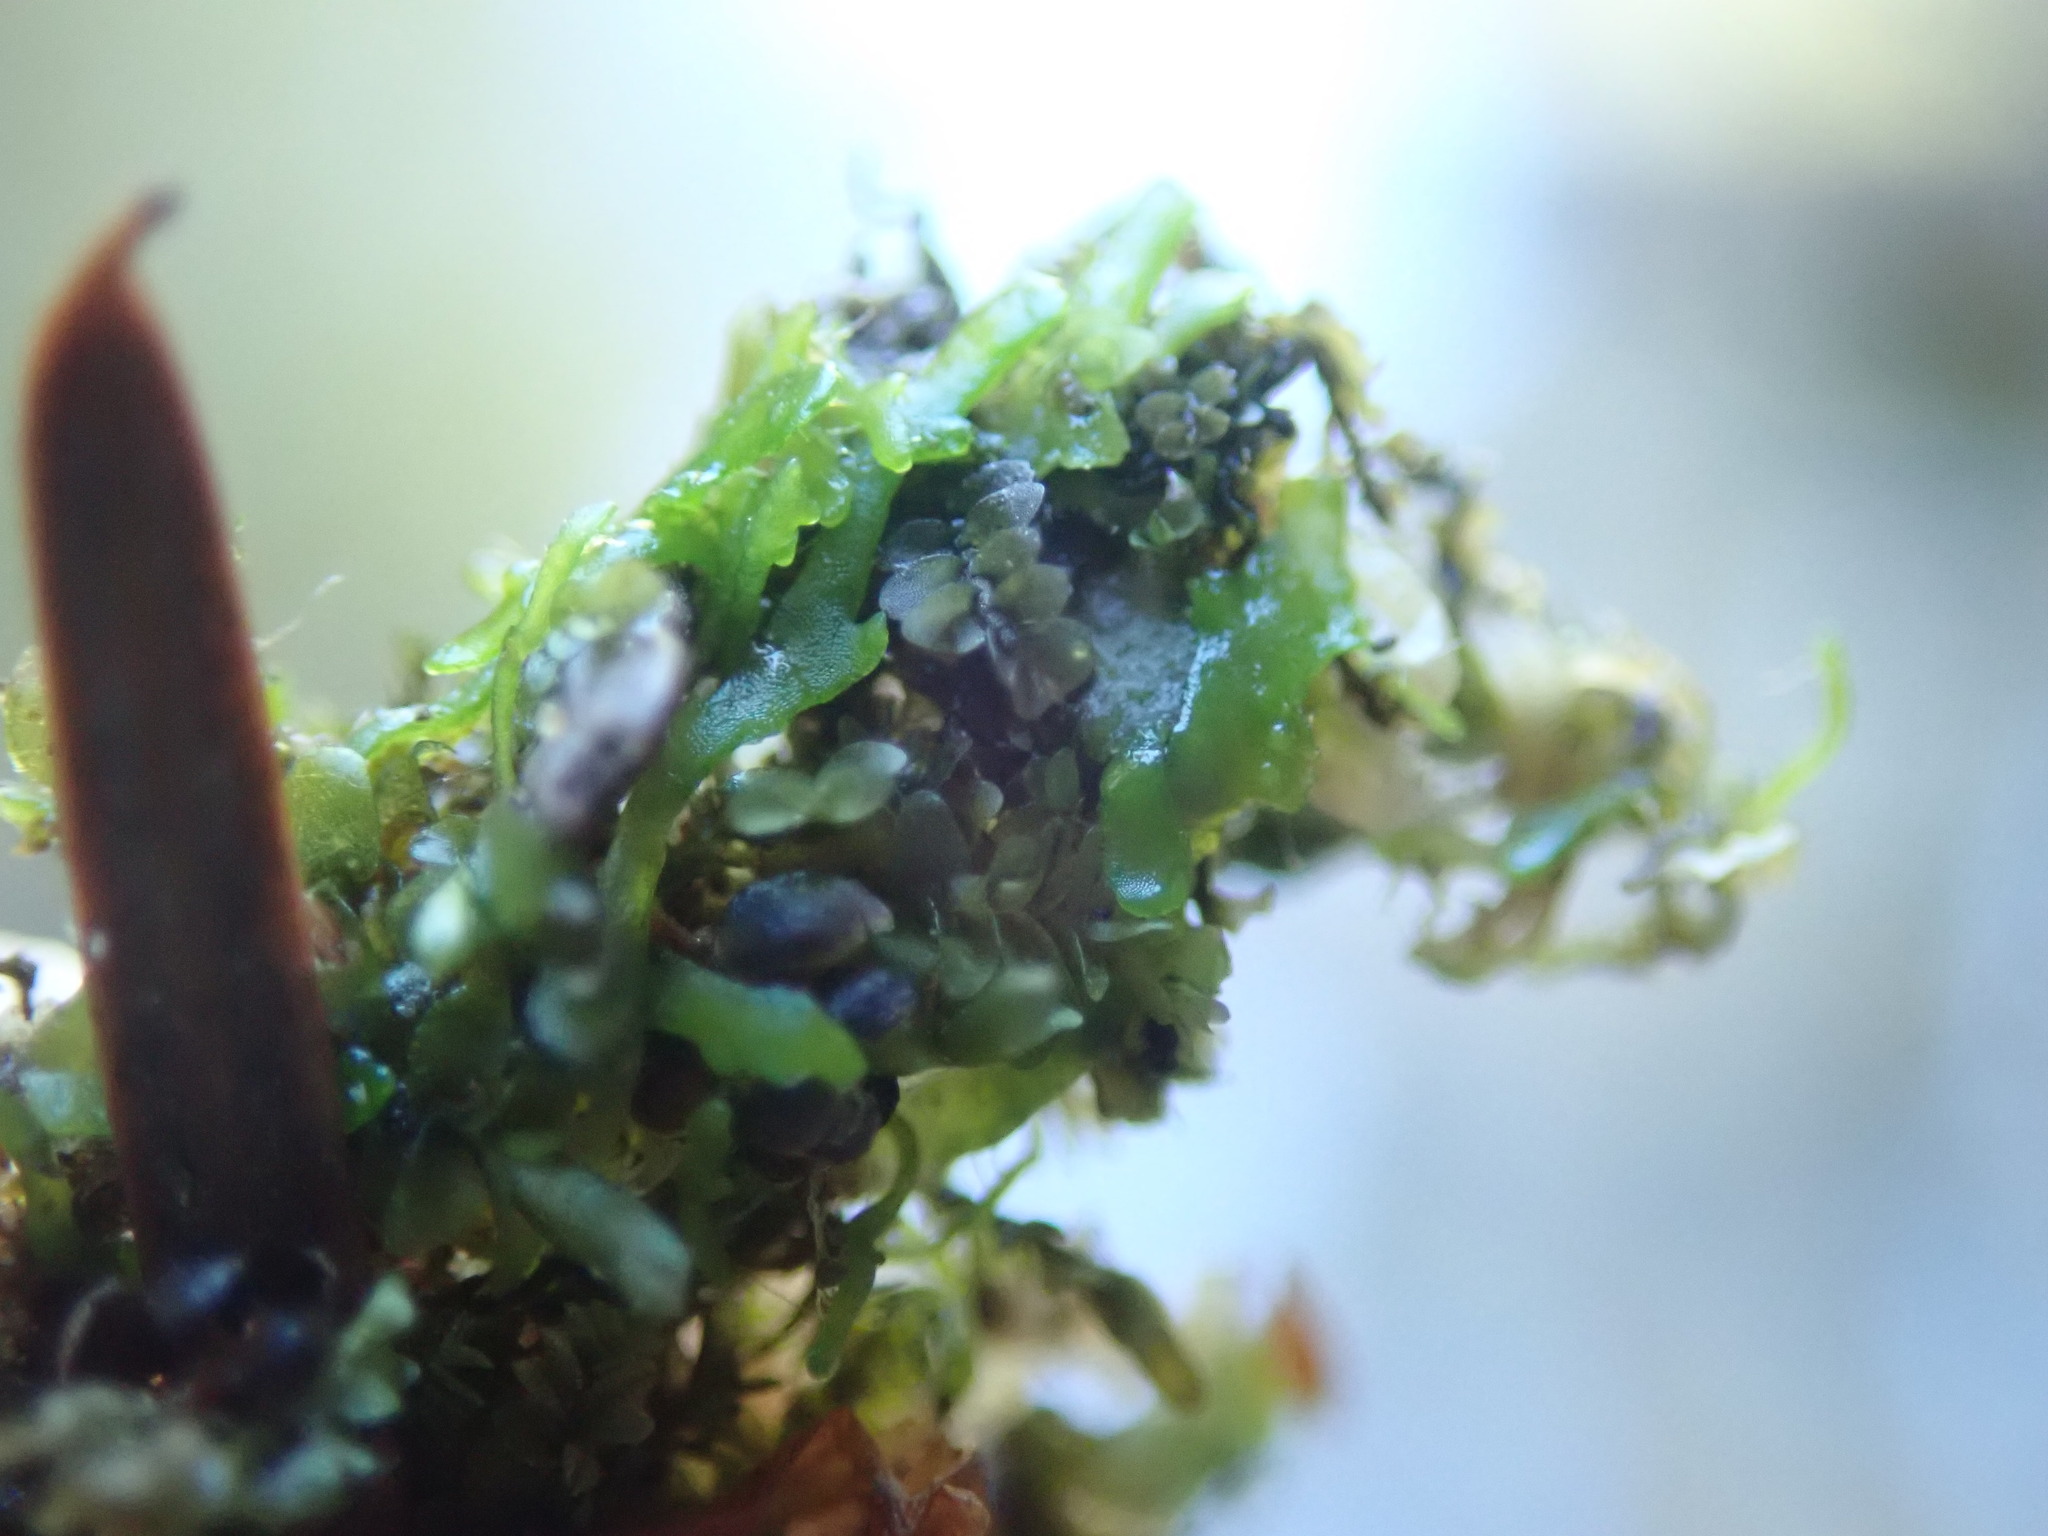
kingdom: Plantae
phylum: Marchantiophyta
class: Jungermanniopsida
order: Metzgeriales
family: Aneuraceae
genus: Aneura
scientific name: Aneura pinguis
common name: Common greasewort
